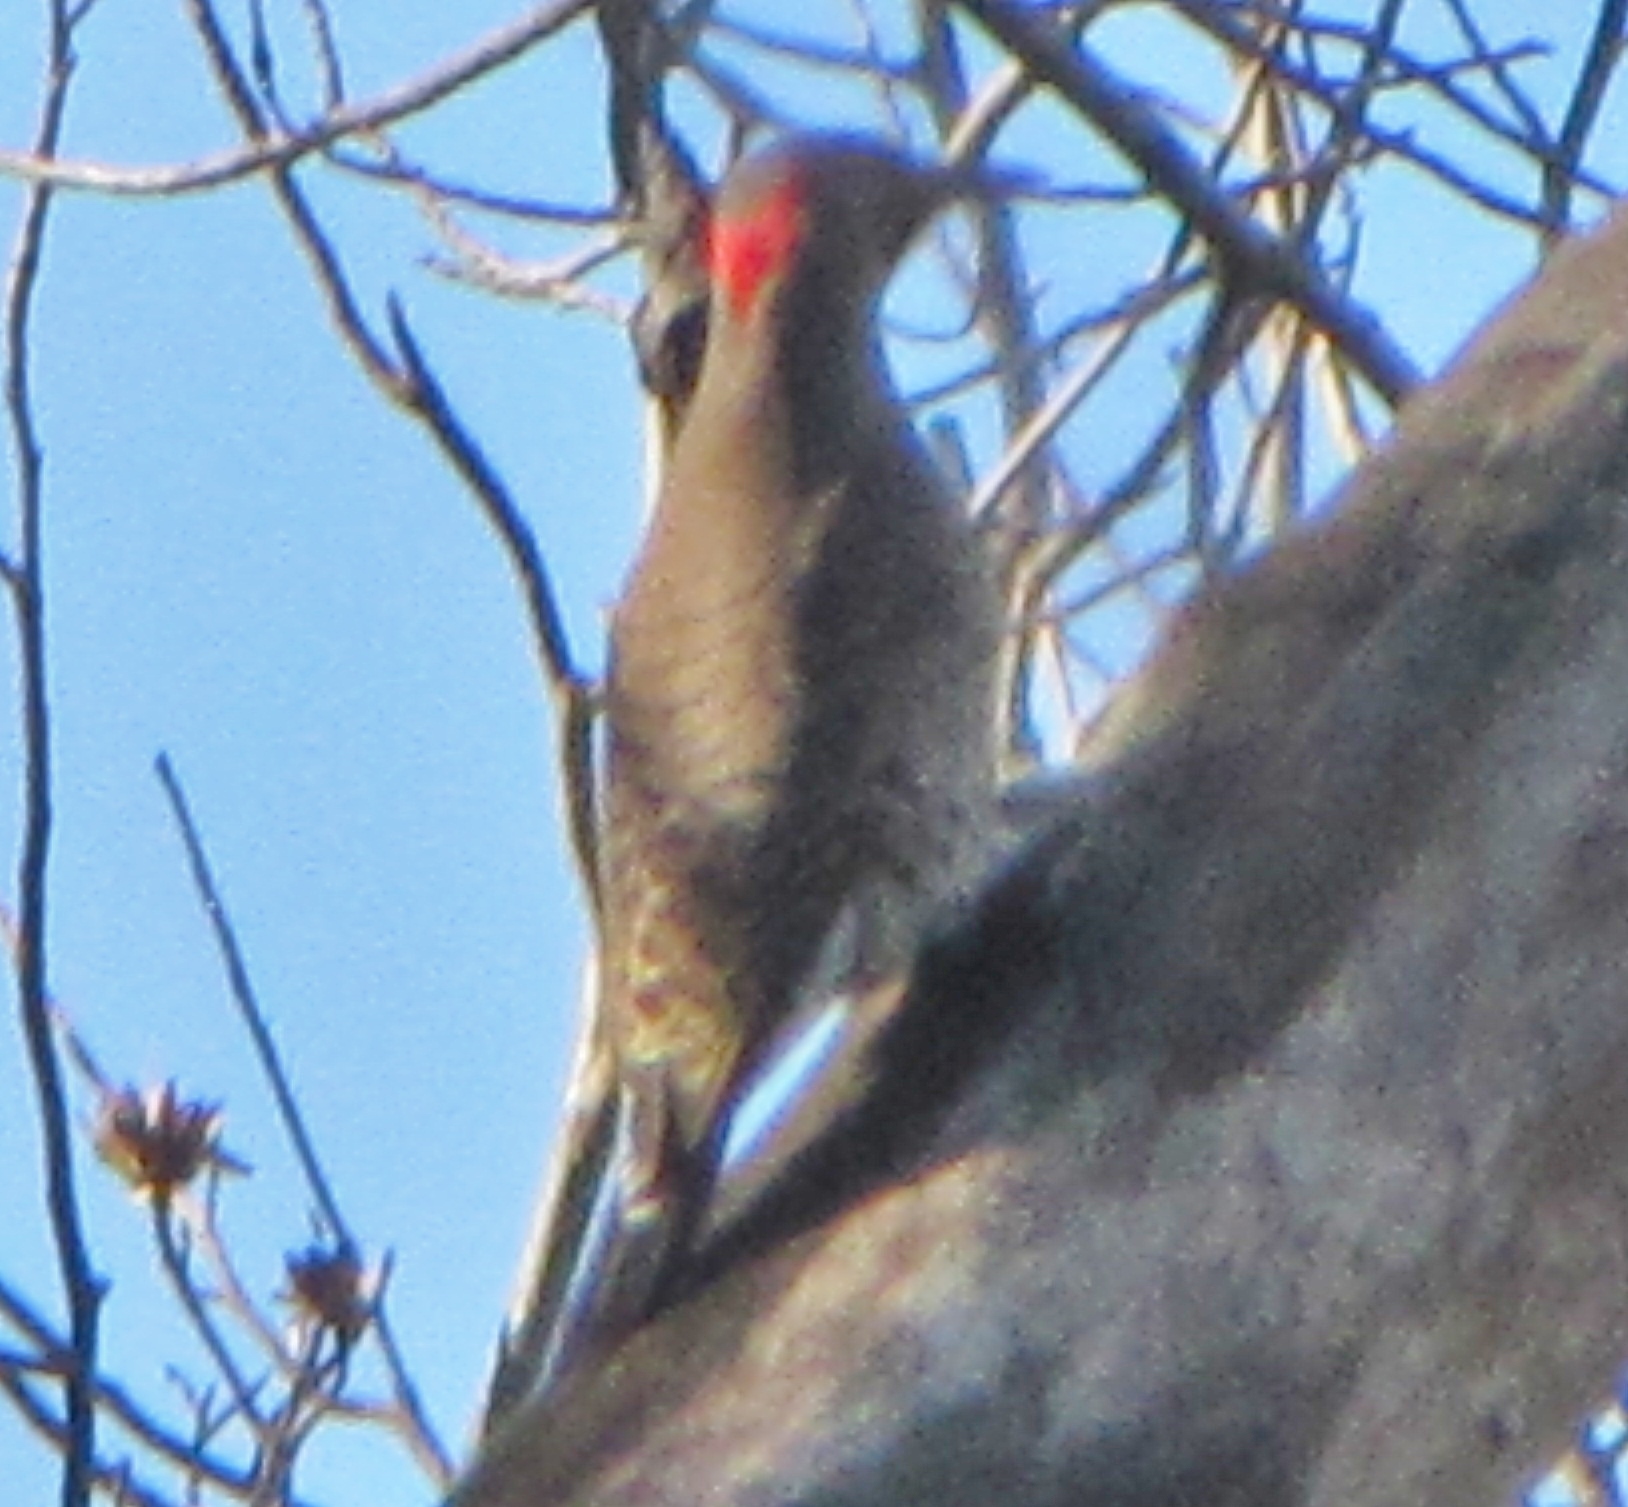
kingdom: Animalia
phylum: Chordata
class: Aves
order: Piciformes
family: Picidae
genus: Colaptes
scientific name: Colaptes auratus
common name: Northern flicker
